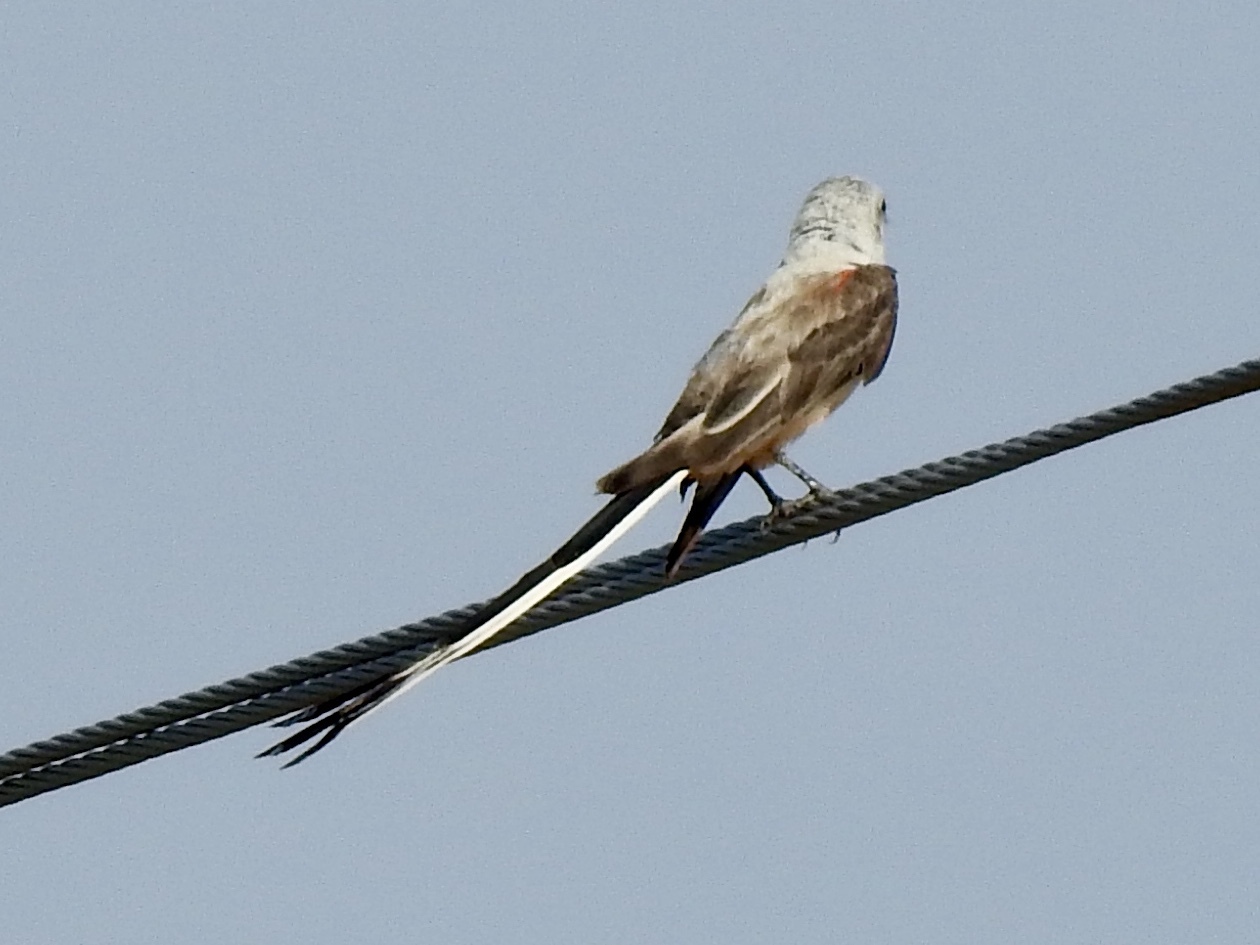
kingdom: Animalia
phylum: Chordata
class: Aves
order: Passeriformes
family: Tyrannidae
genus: Tyrannus
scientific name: Tyrannus forficatus
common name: Scissor-tailed flycatcher
